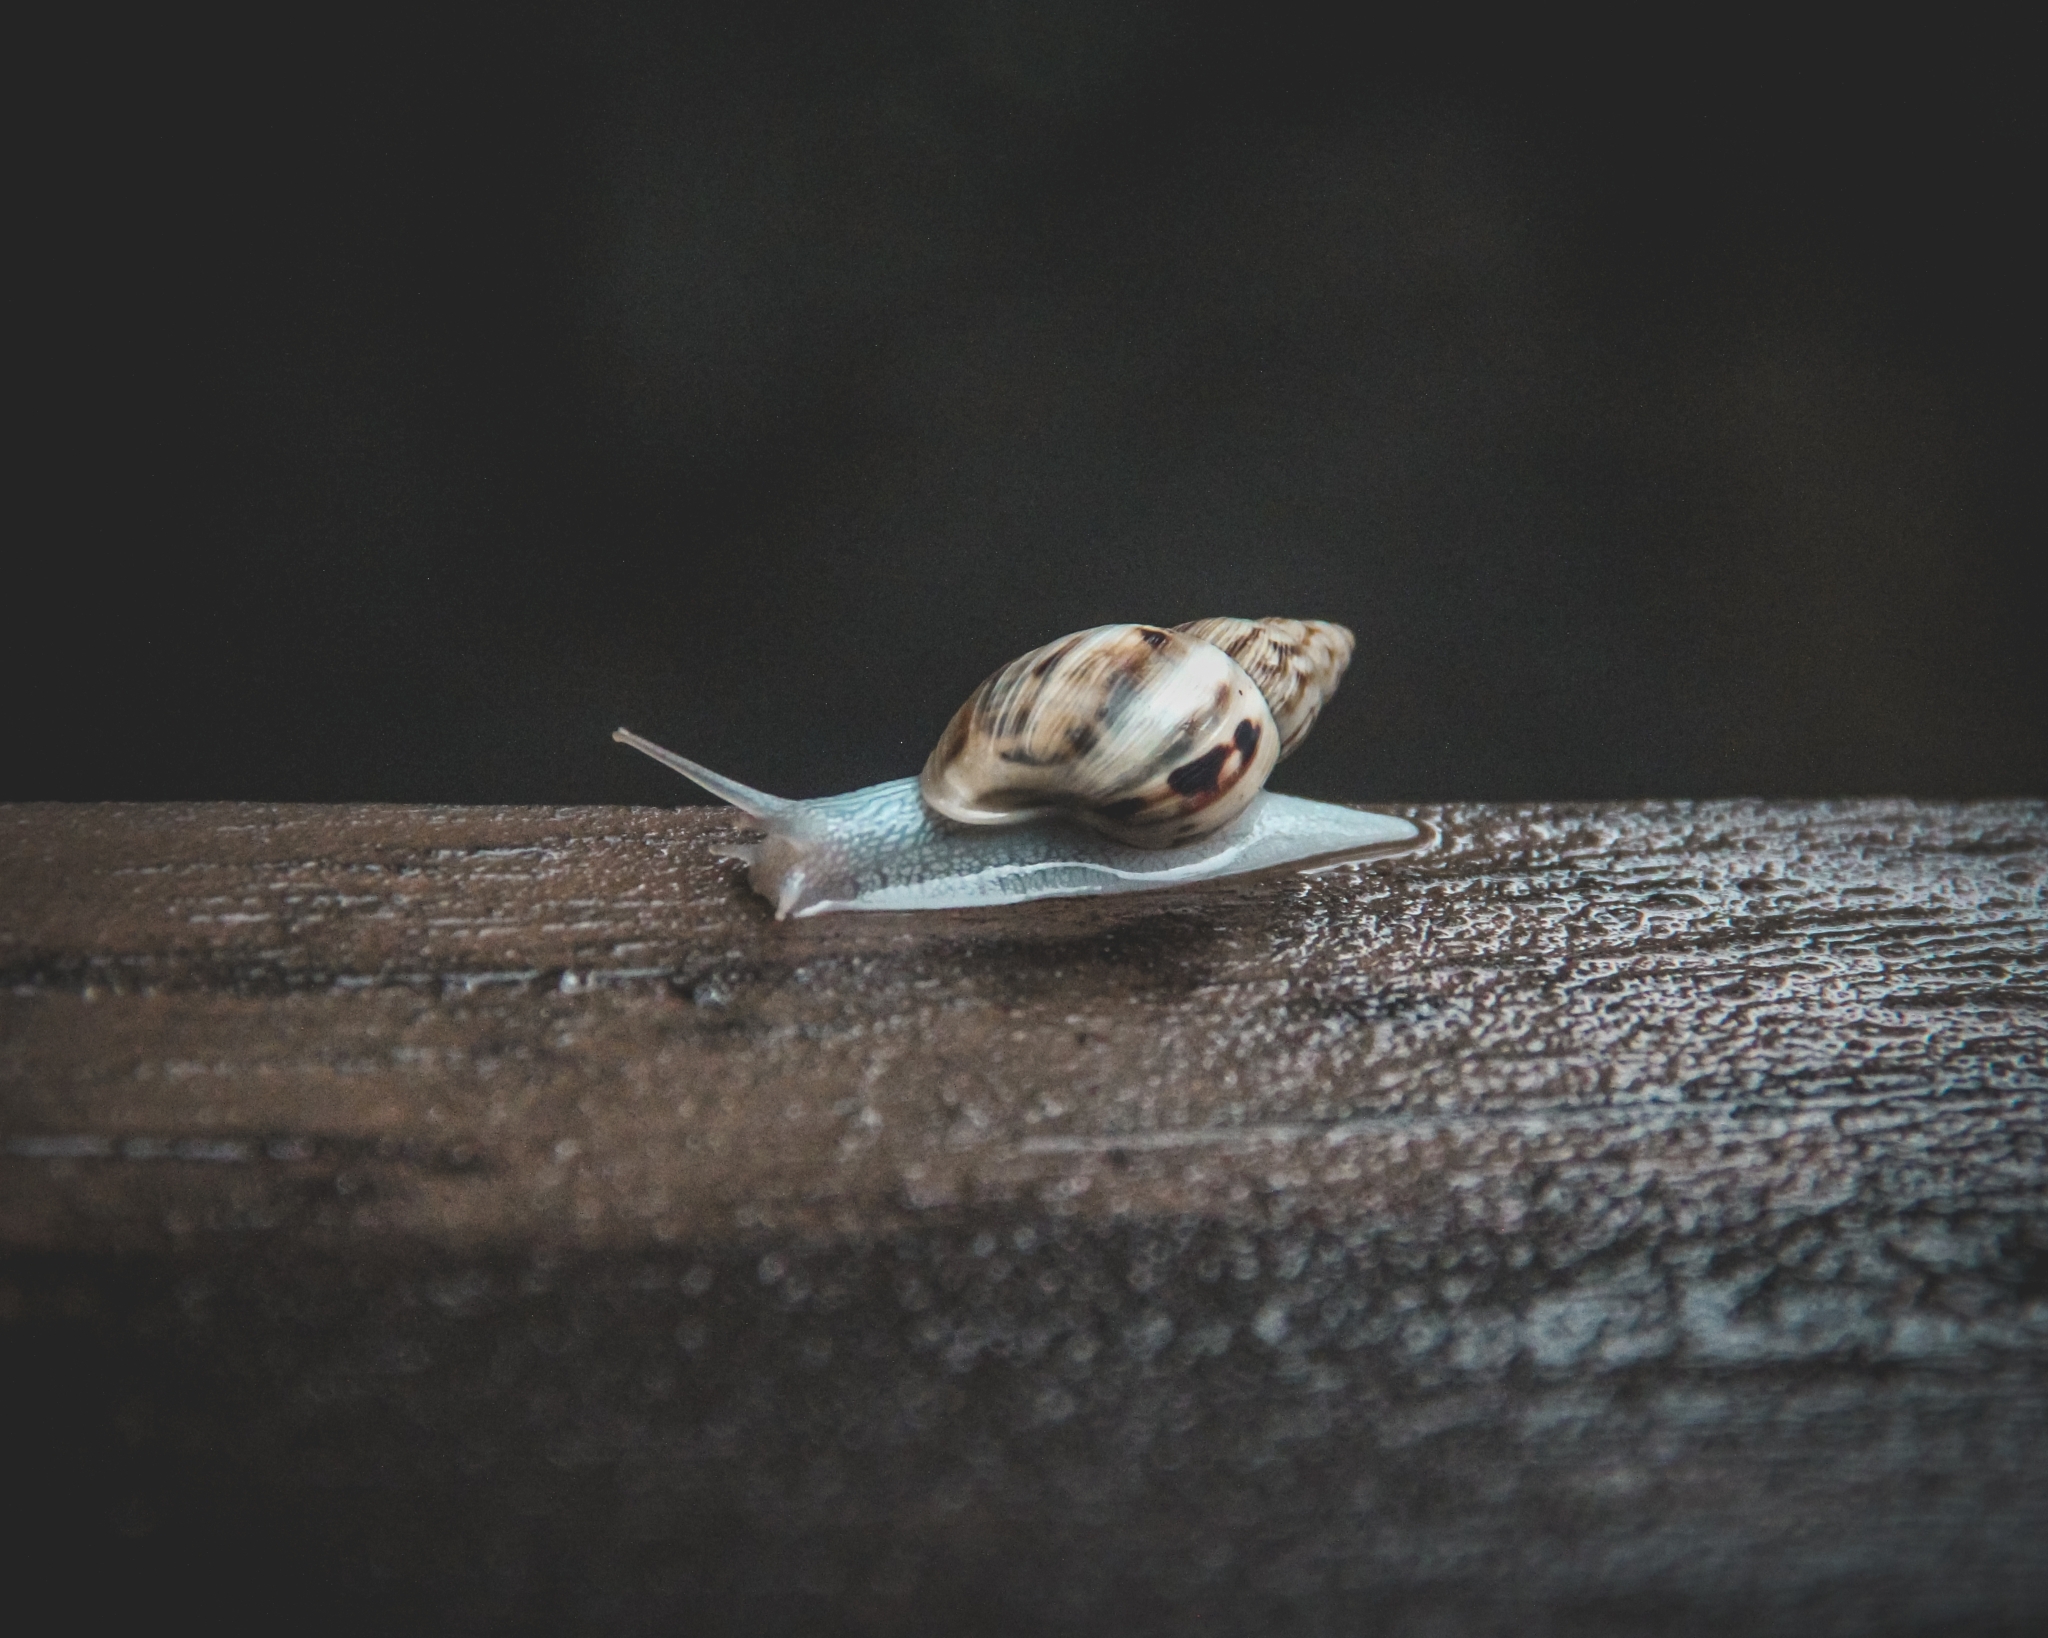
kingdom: Animalia
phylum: Mollusca
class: Gastropoda
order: Stylommatophora
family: Bulimulidae
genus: Drymaeus
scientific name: Drymaeus papyraceus
